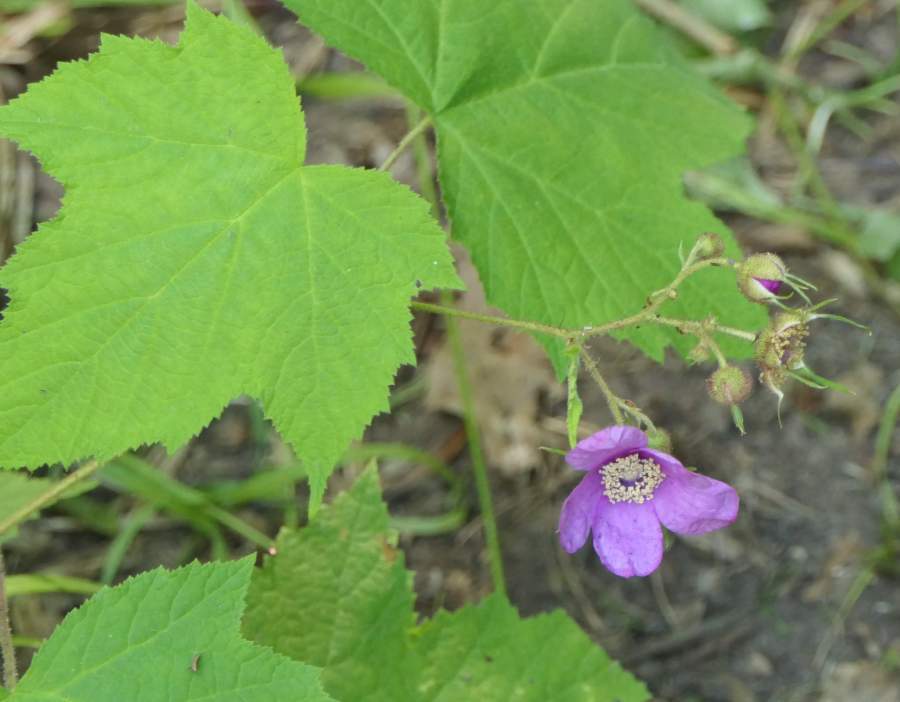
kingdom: Plantae
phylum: Tracheophyta
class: Magnoliopsida
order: Rosales
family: Rosaceae
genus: Rubus
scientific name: Rubus odoratus
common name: Purple-flowered raspberry
